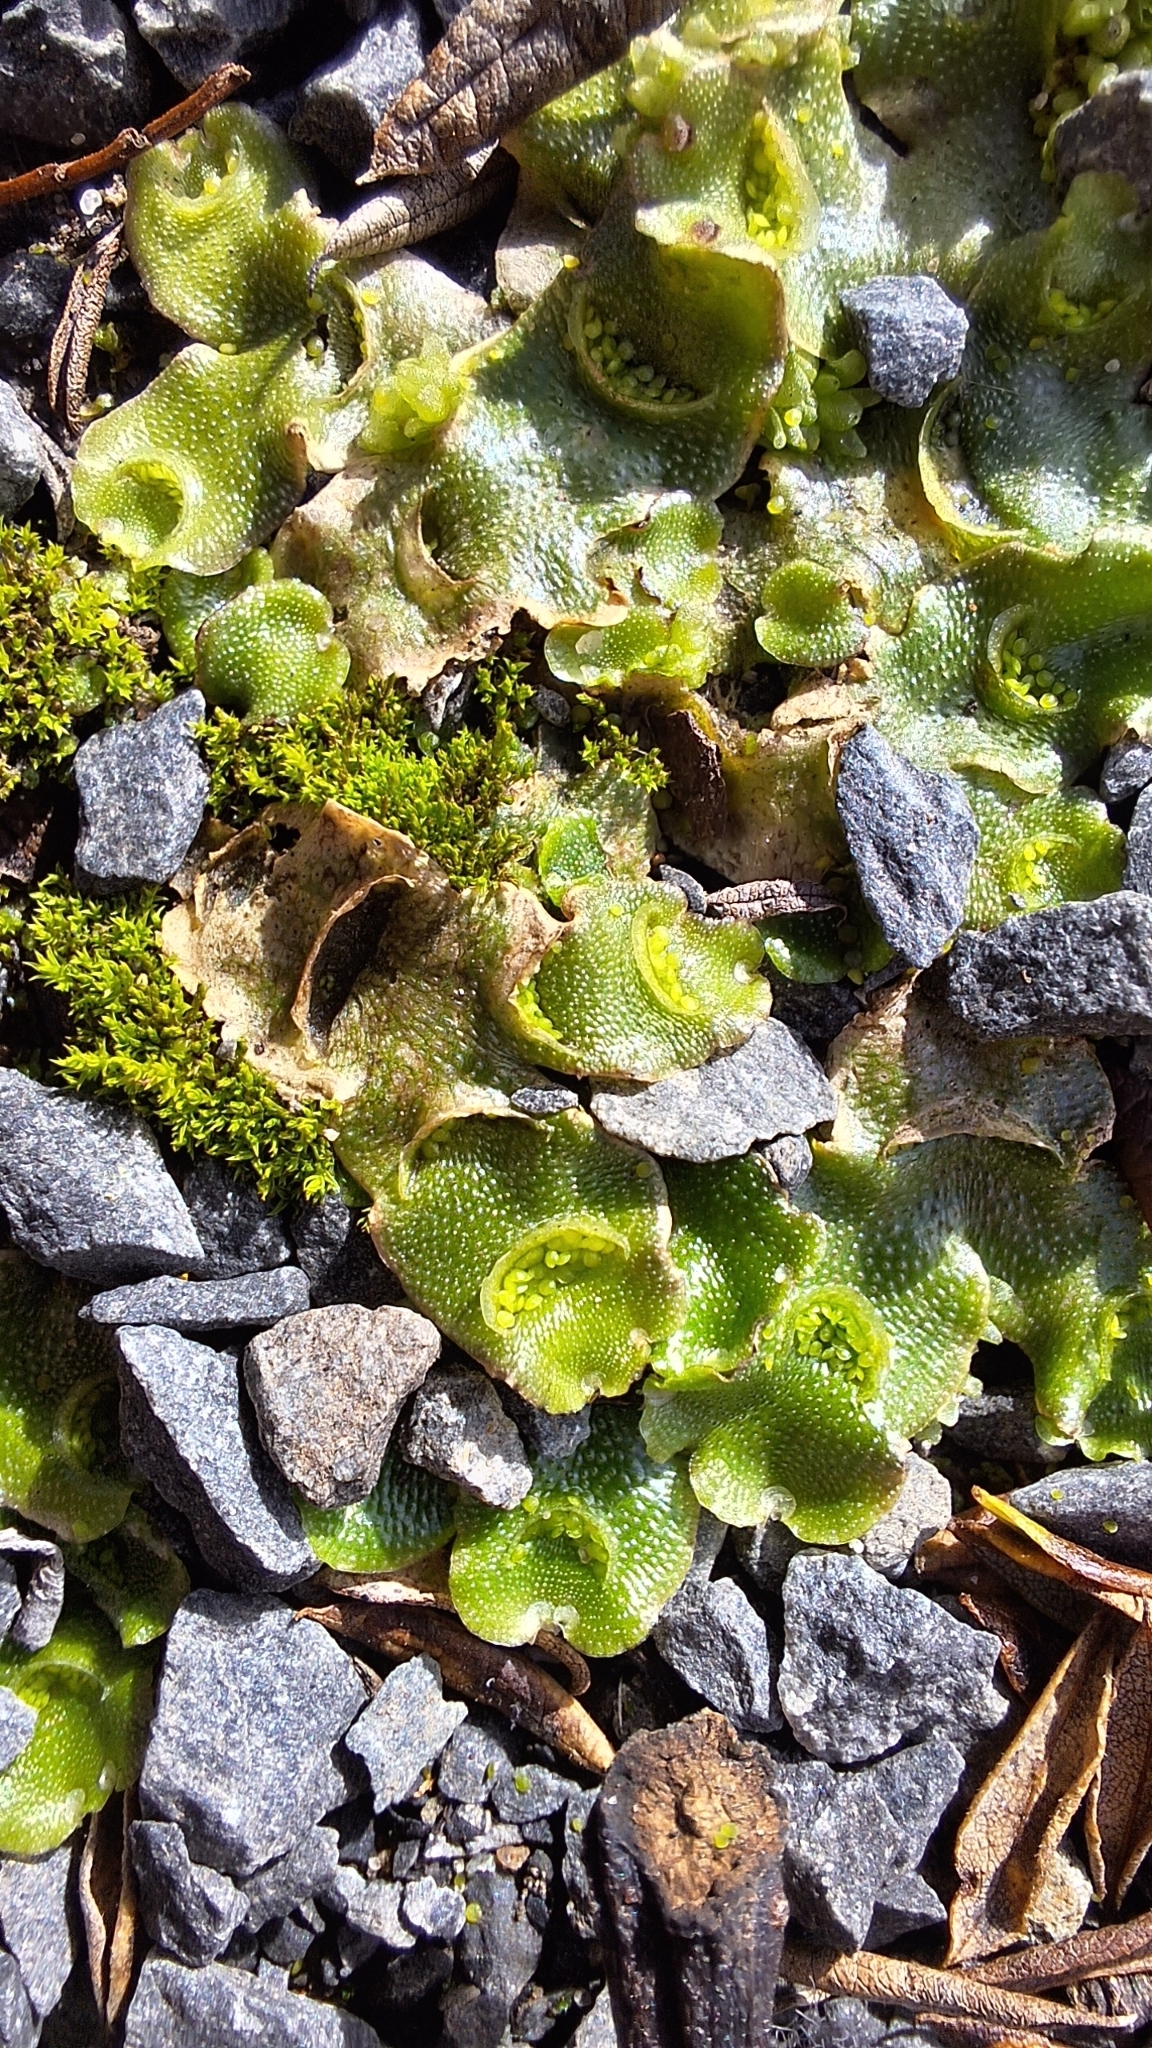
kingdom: Plantae
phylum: Marchantiophyta
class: Marchantiopsida
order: Lunulariales
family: Lunulariaceae
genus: Lunularia
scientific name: Lunularia cruciata
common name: Crescent-cup liverwort
